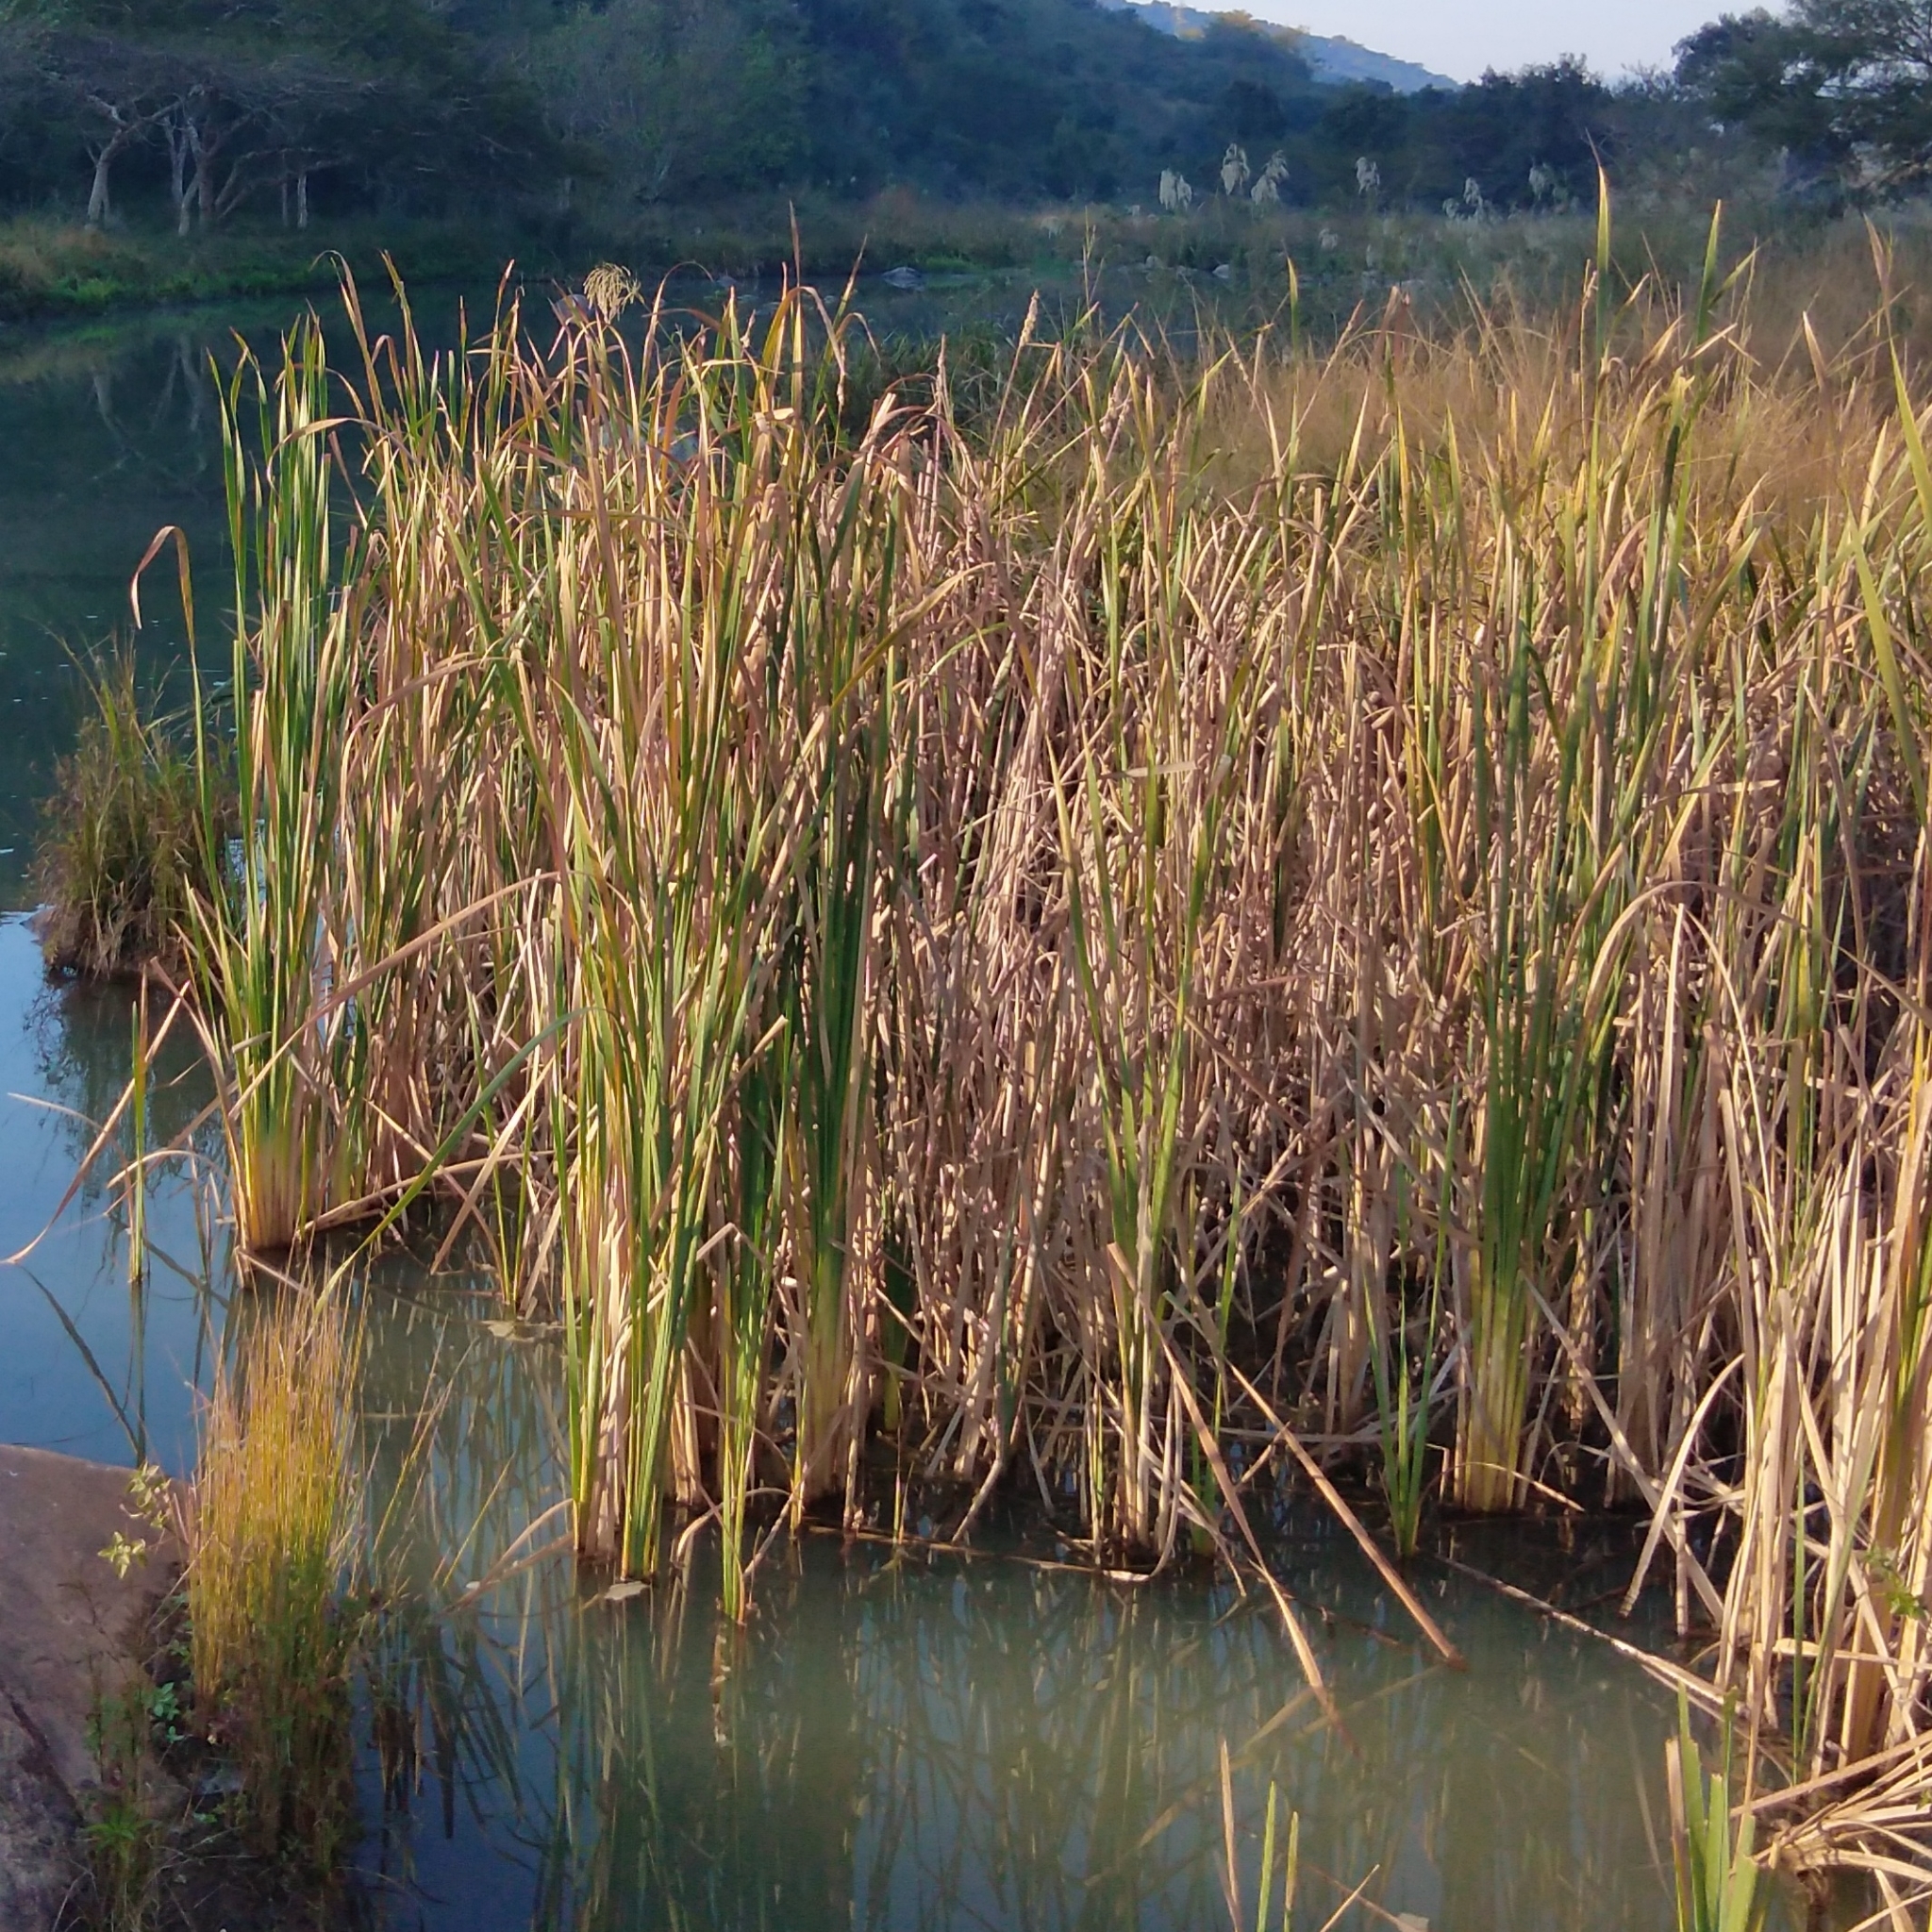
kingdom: Plantae
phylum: Tracheophyta
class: Liliopsida
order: Poales
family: Typhaceae
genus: Typha
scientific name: Typha capensis
